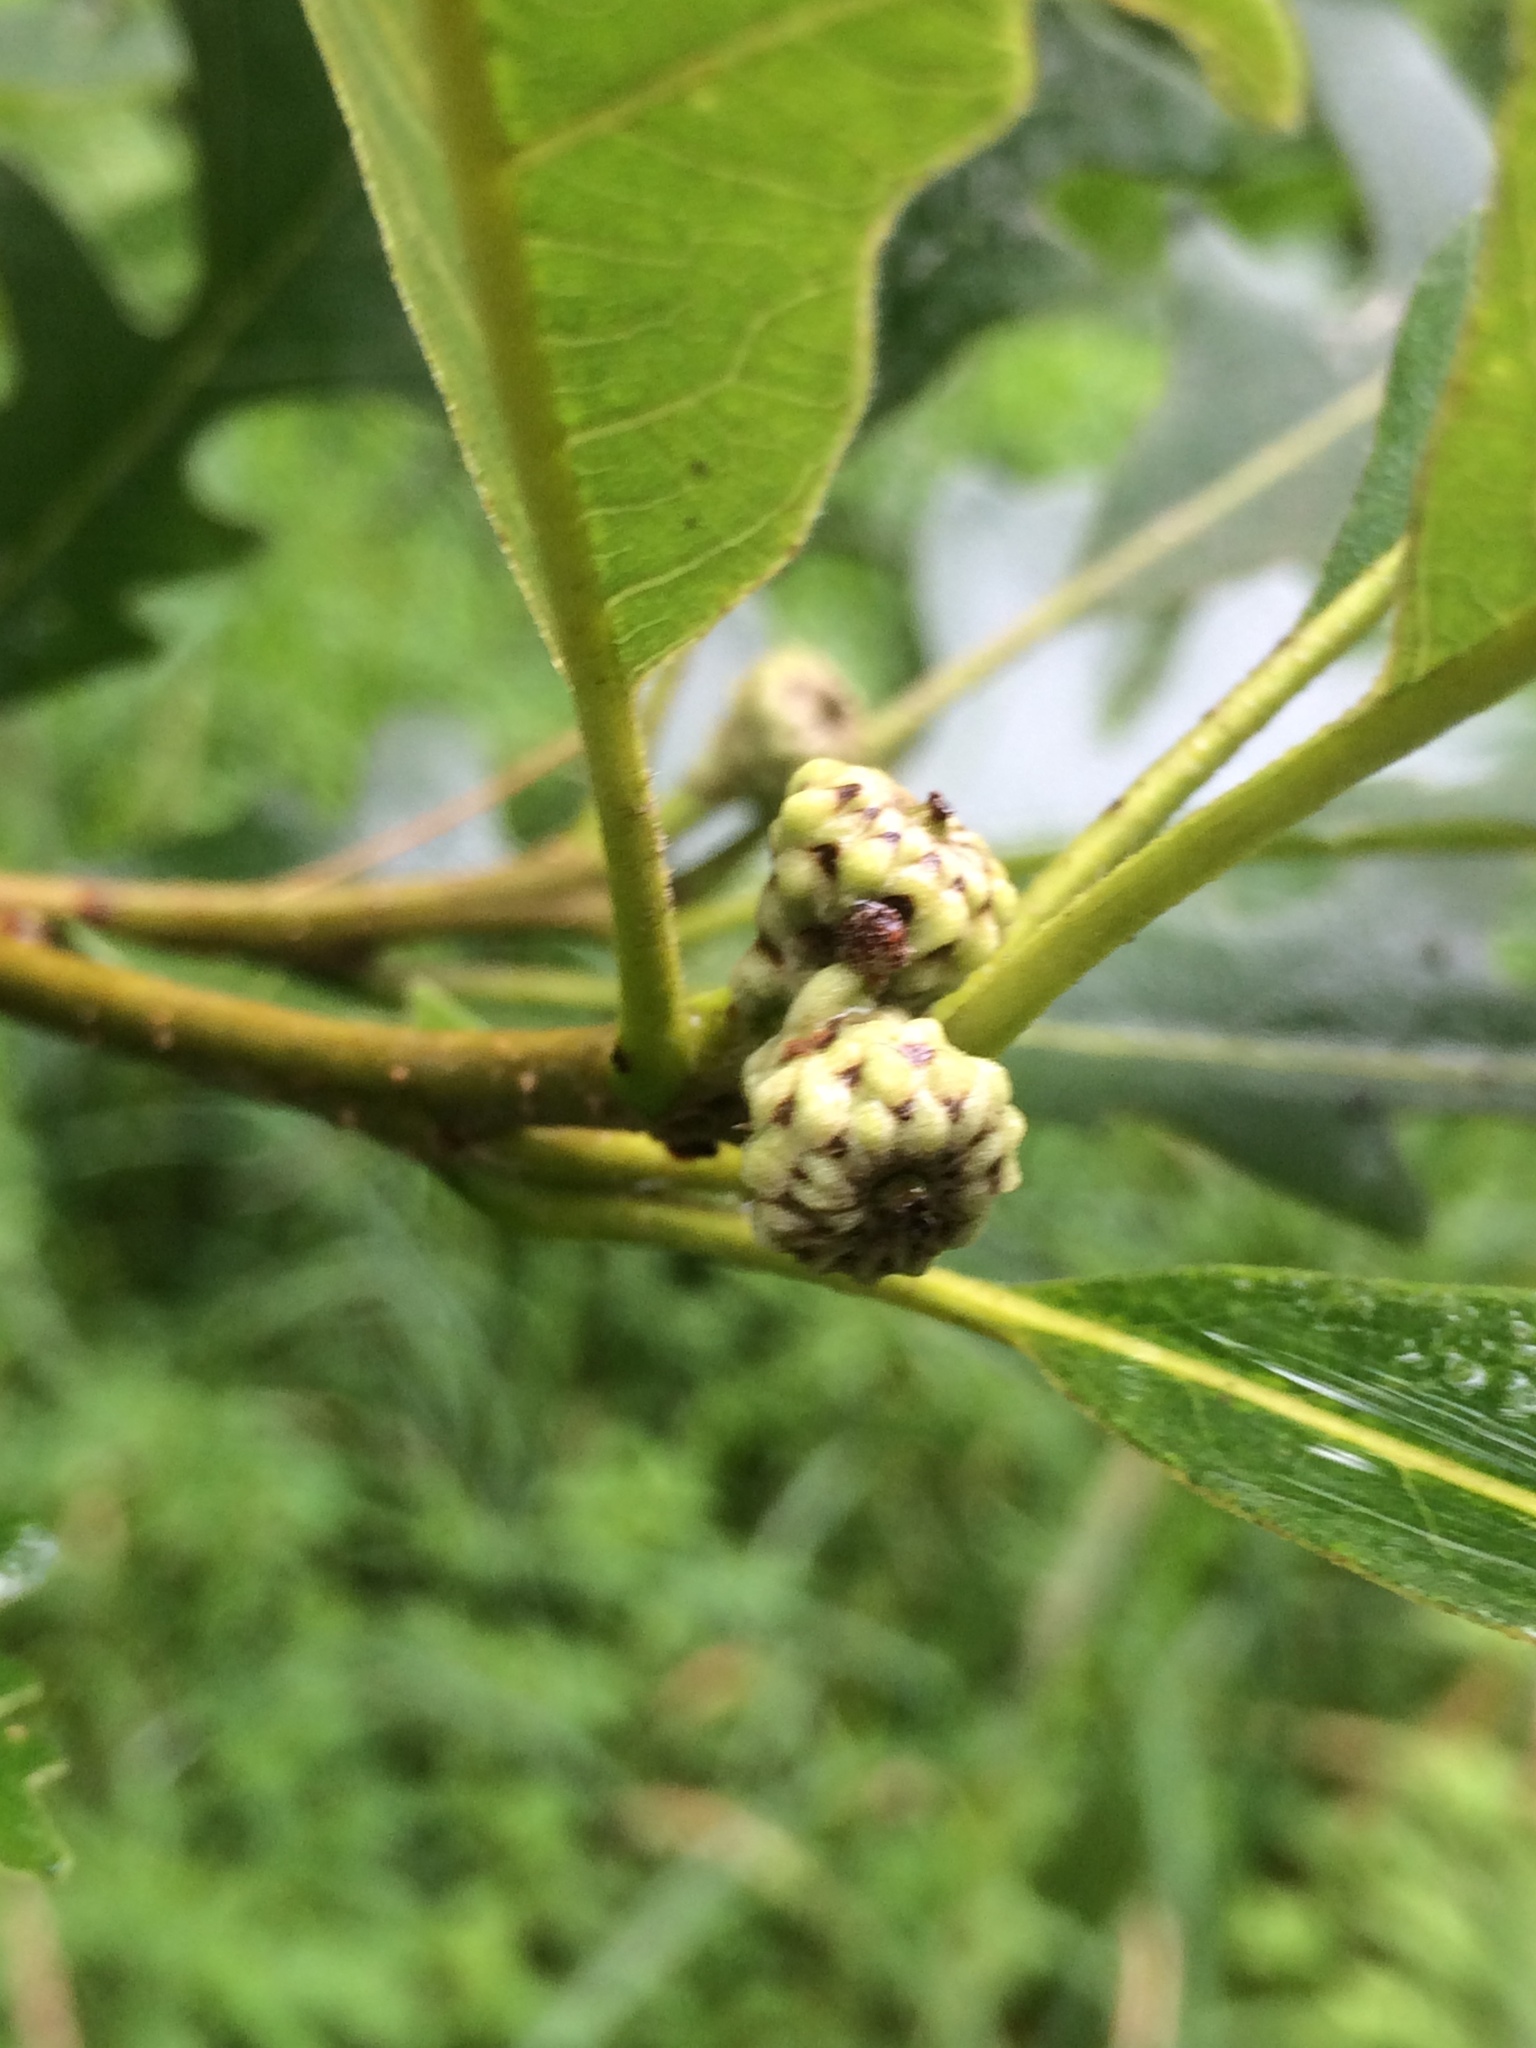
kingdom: Plantae
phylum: Tracheophyta
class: Magnoliopsida
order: Fagales
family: Fagaceae
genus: Quercus
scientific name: Quercus macrocarpa
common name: Bur oak
